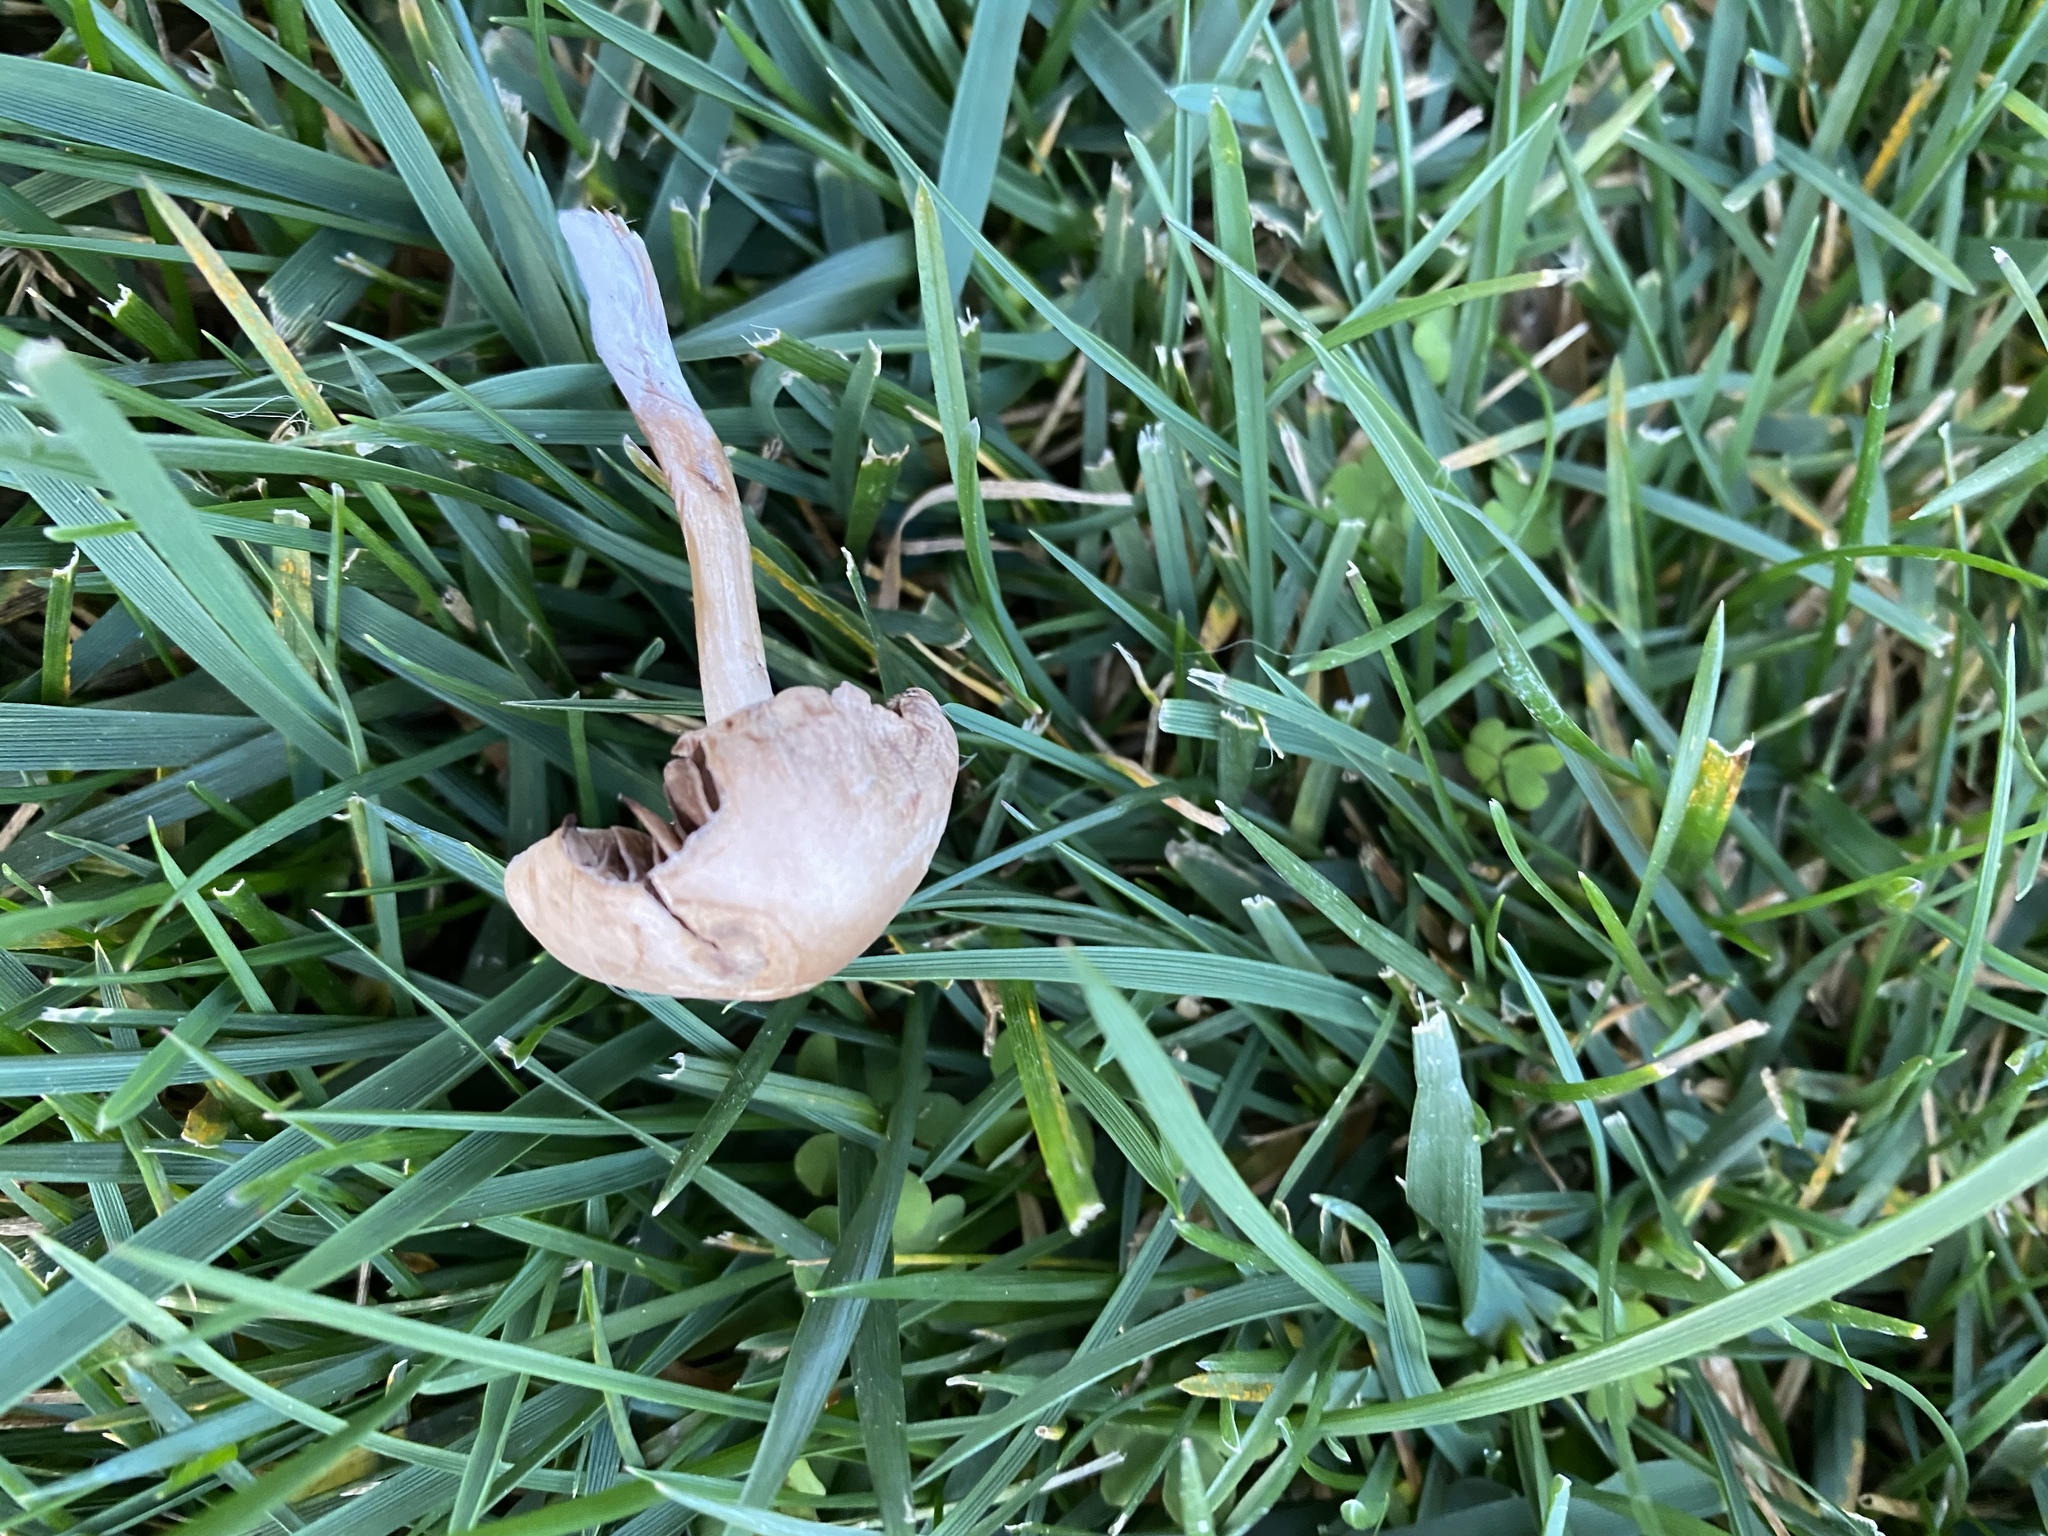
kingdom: Fungi
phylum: Basidiomycota
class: Agaricomycetes
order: Agaricales
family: Bolbitiaceae
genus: Panaeolina
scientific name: Panaeolina foenisecii
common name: Brown hay cap
